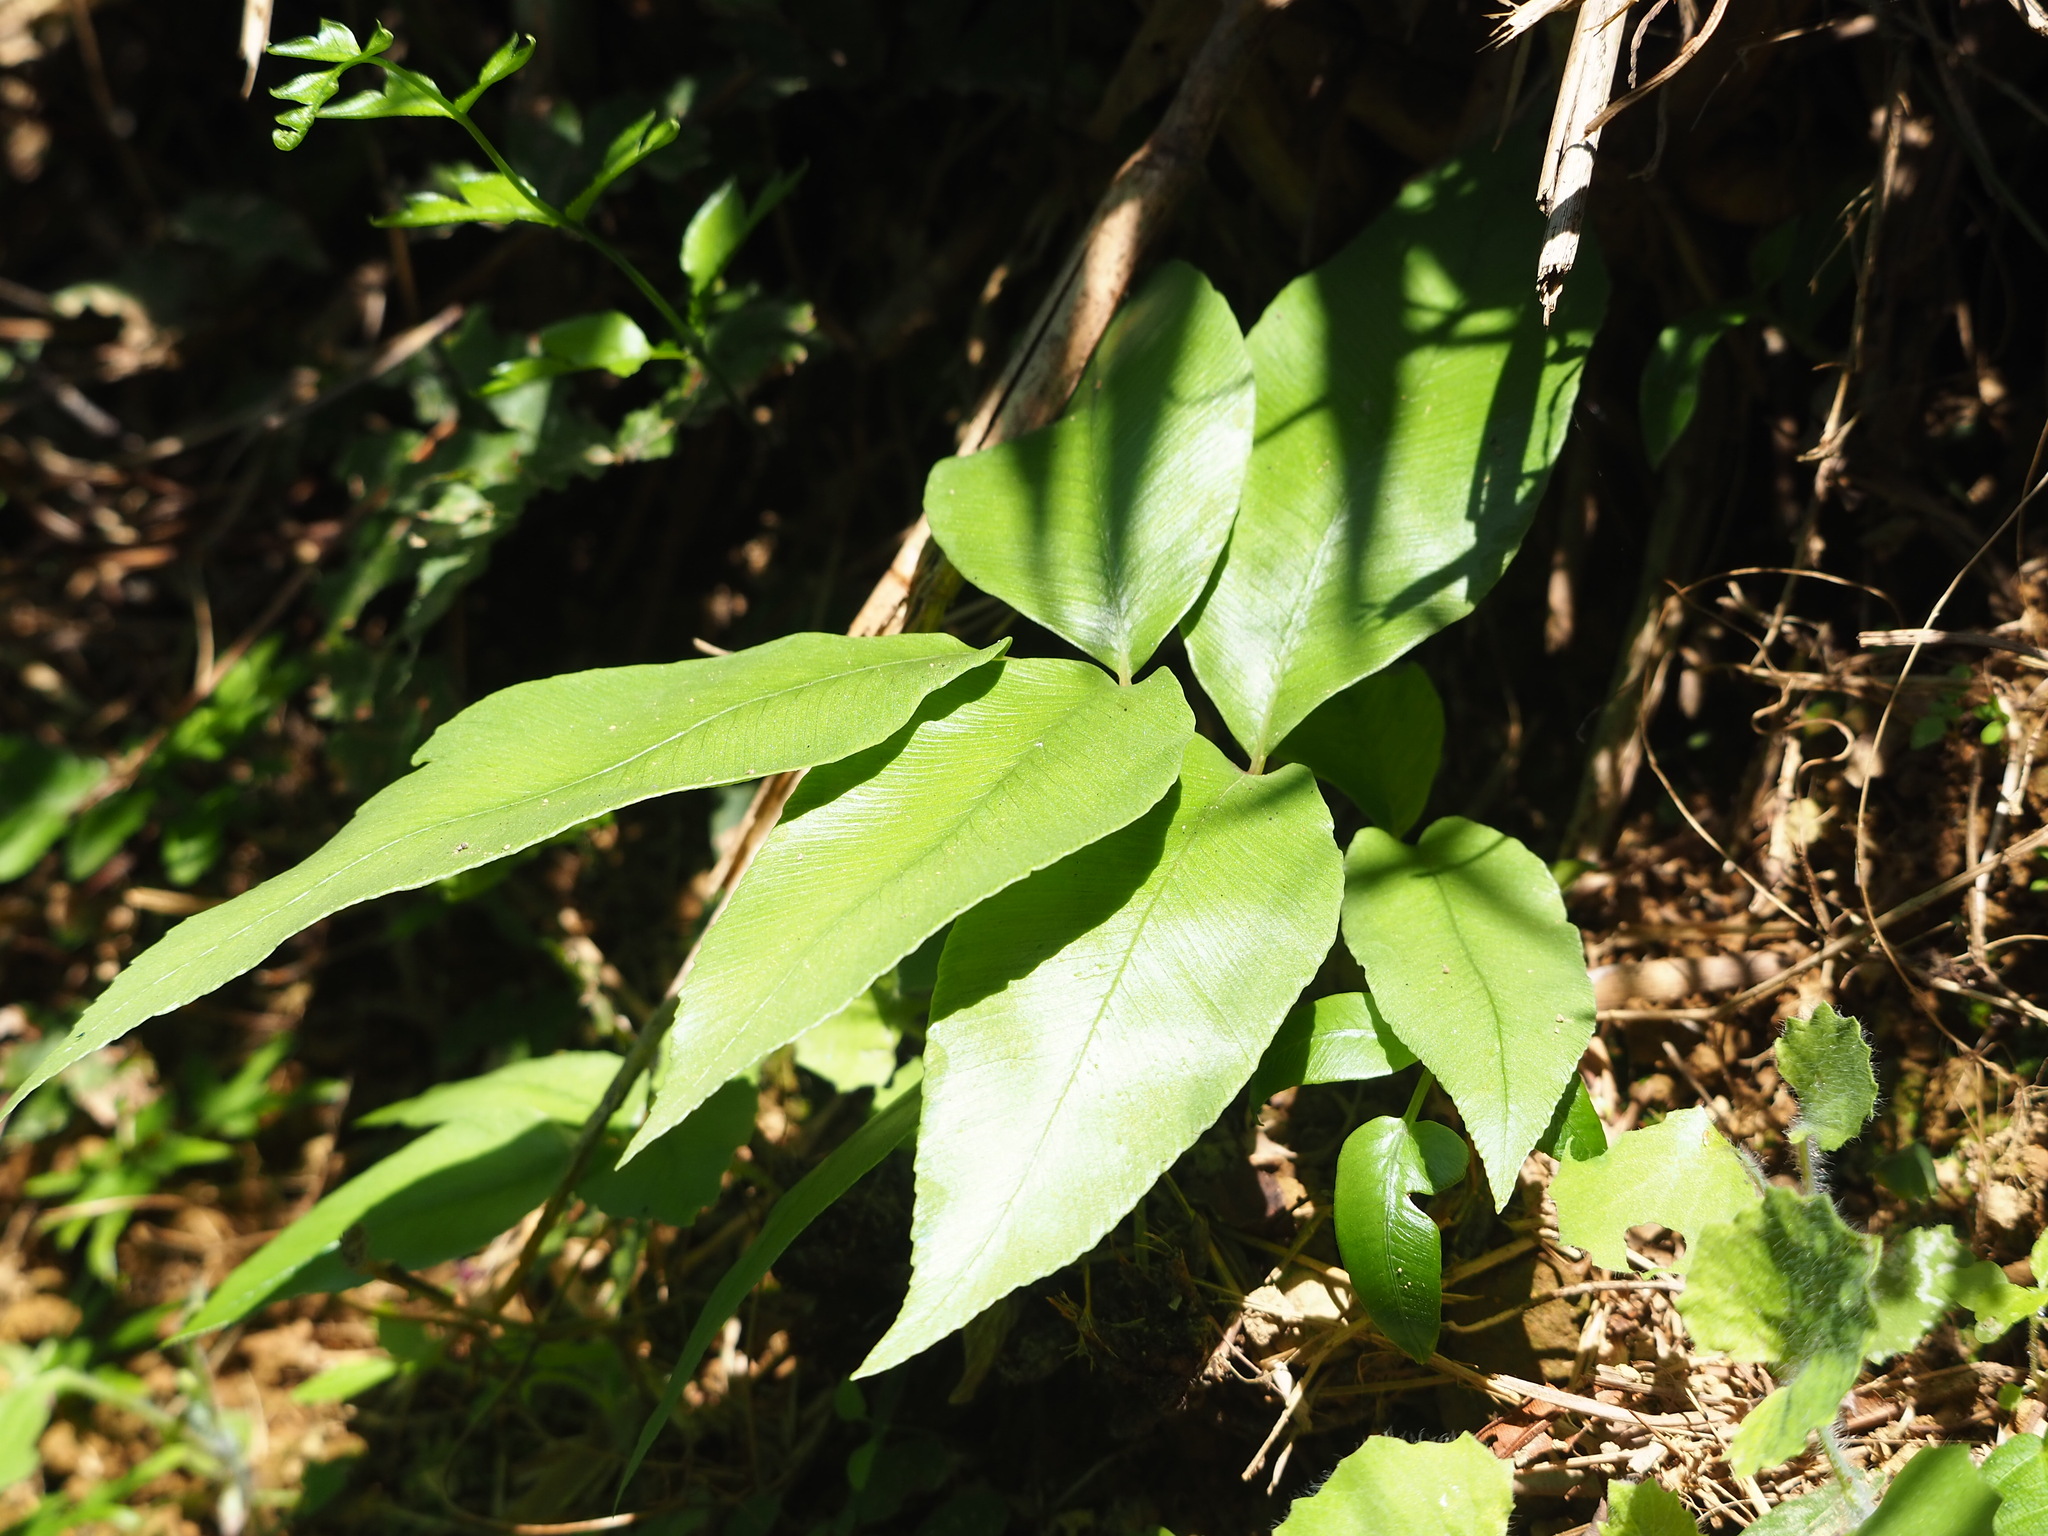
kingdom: Plantae
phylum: Tracheophyta
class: Polypodiopsida
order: Polypodiales
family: Athyriaceae
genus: Diplazium
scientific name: Diplazium lineolatum
